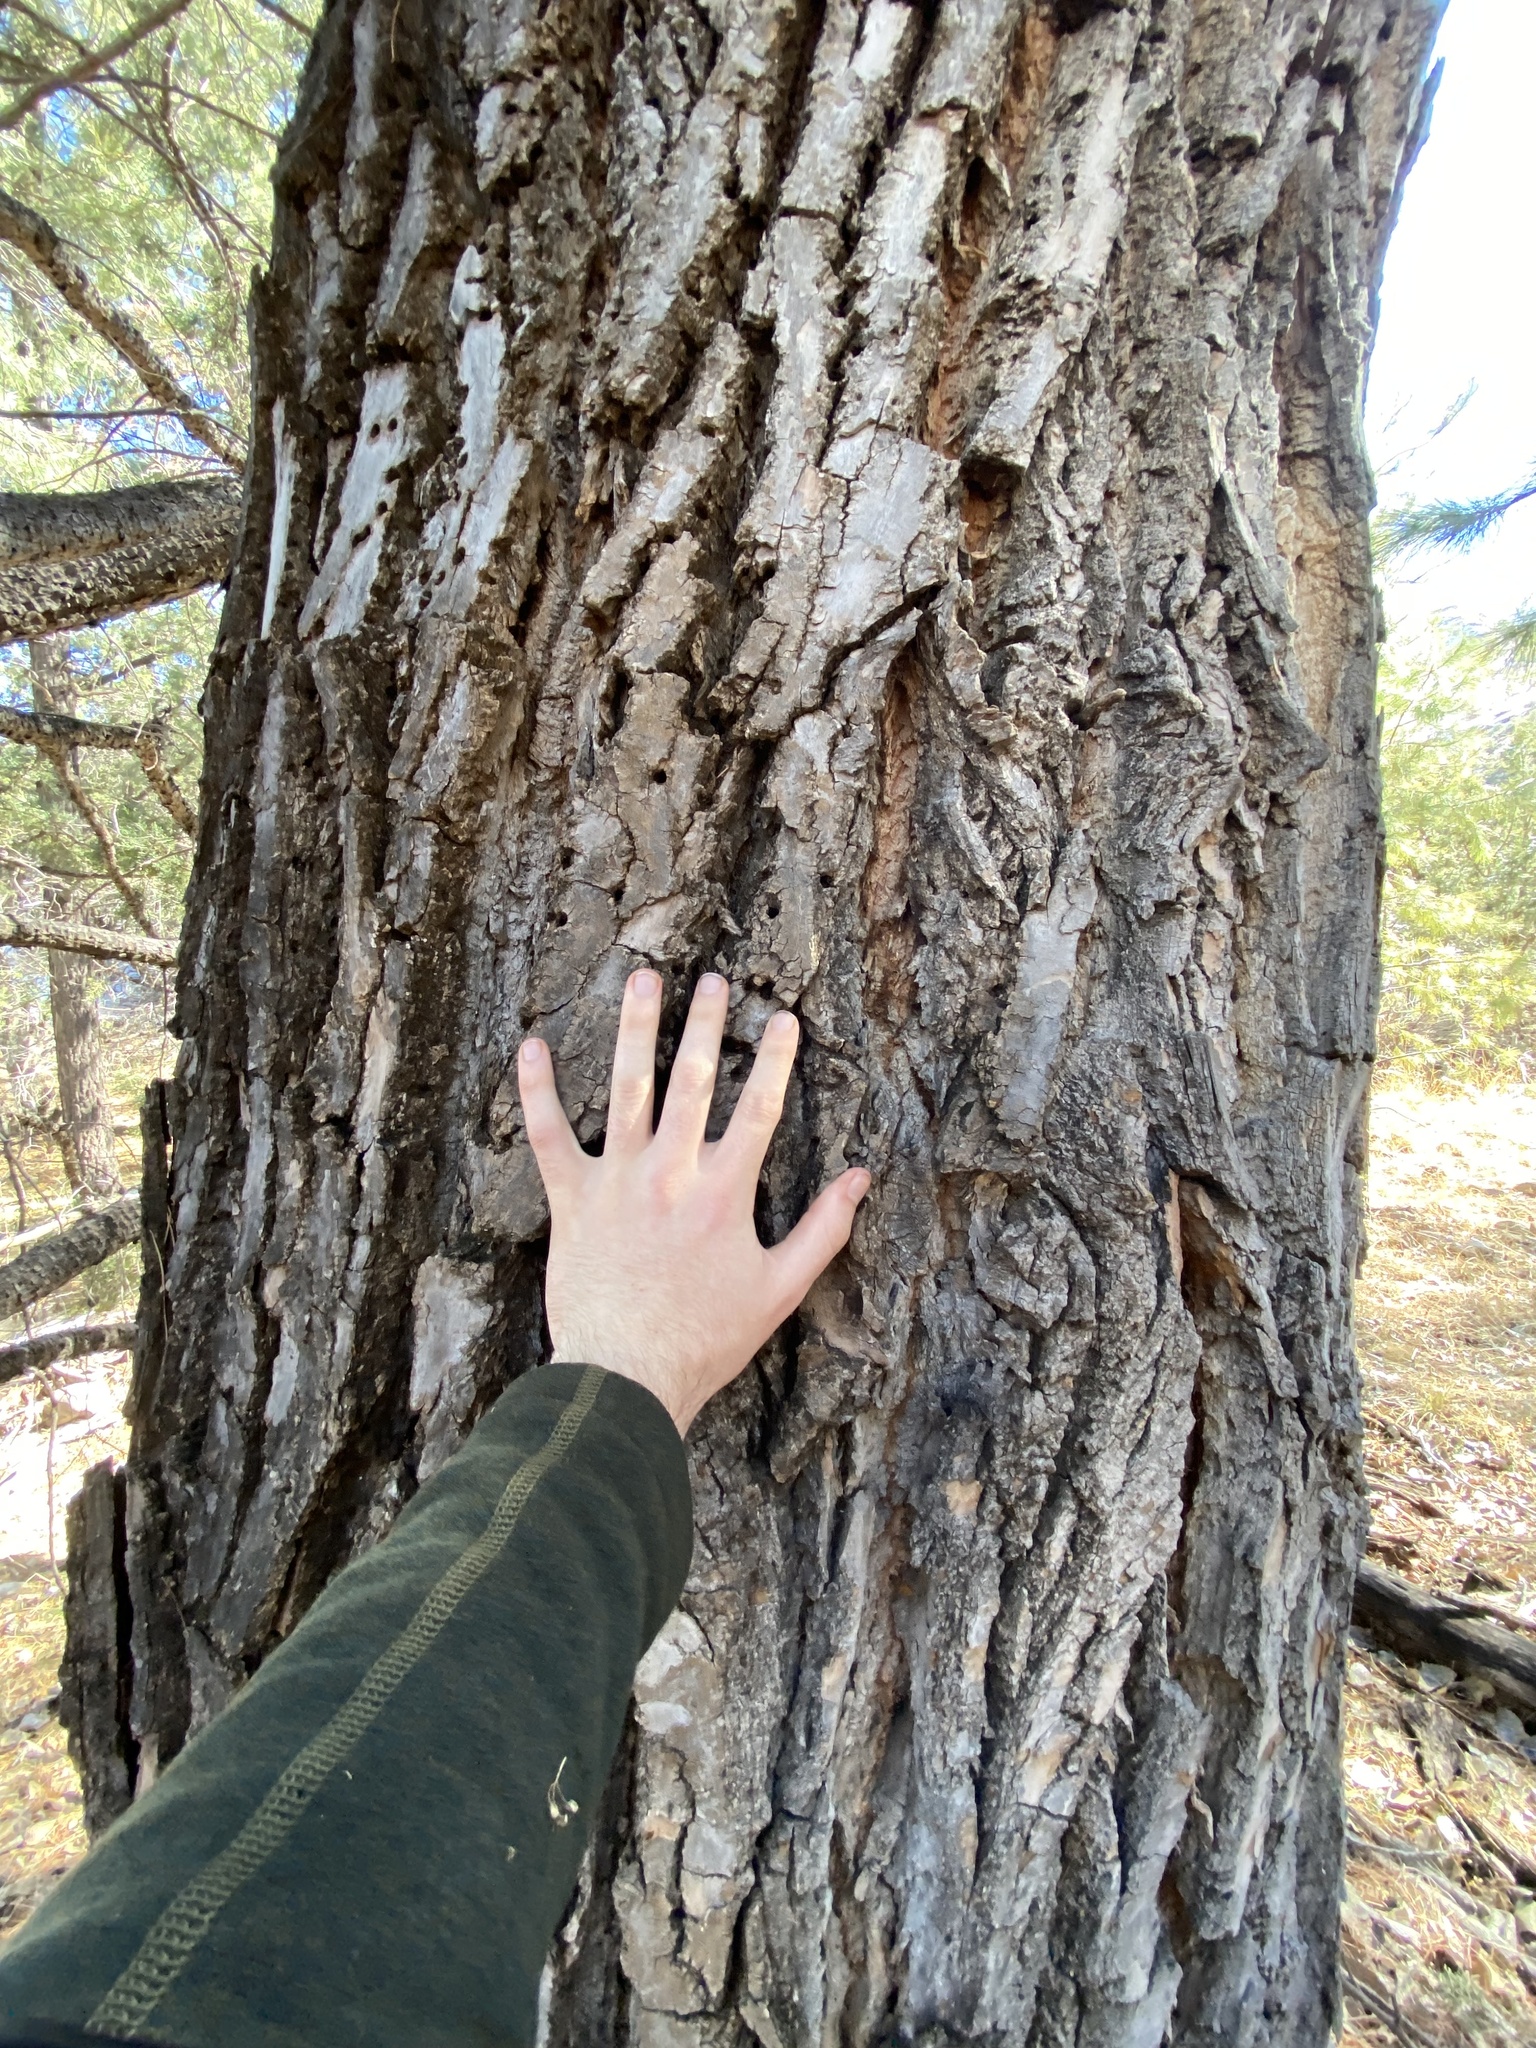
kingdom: Plantae
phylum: Tracheophyta
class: Magnoliopsida
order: Malpighiales
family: Salicaceae
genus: Populus
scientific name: Populus fremontii
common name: Fremont's cottonwood
